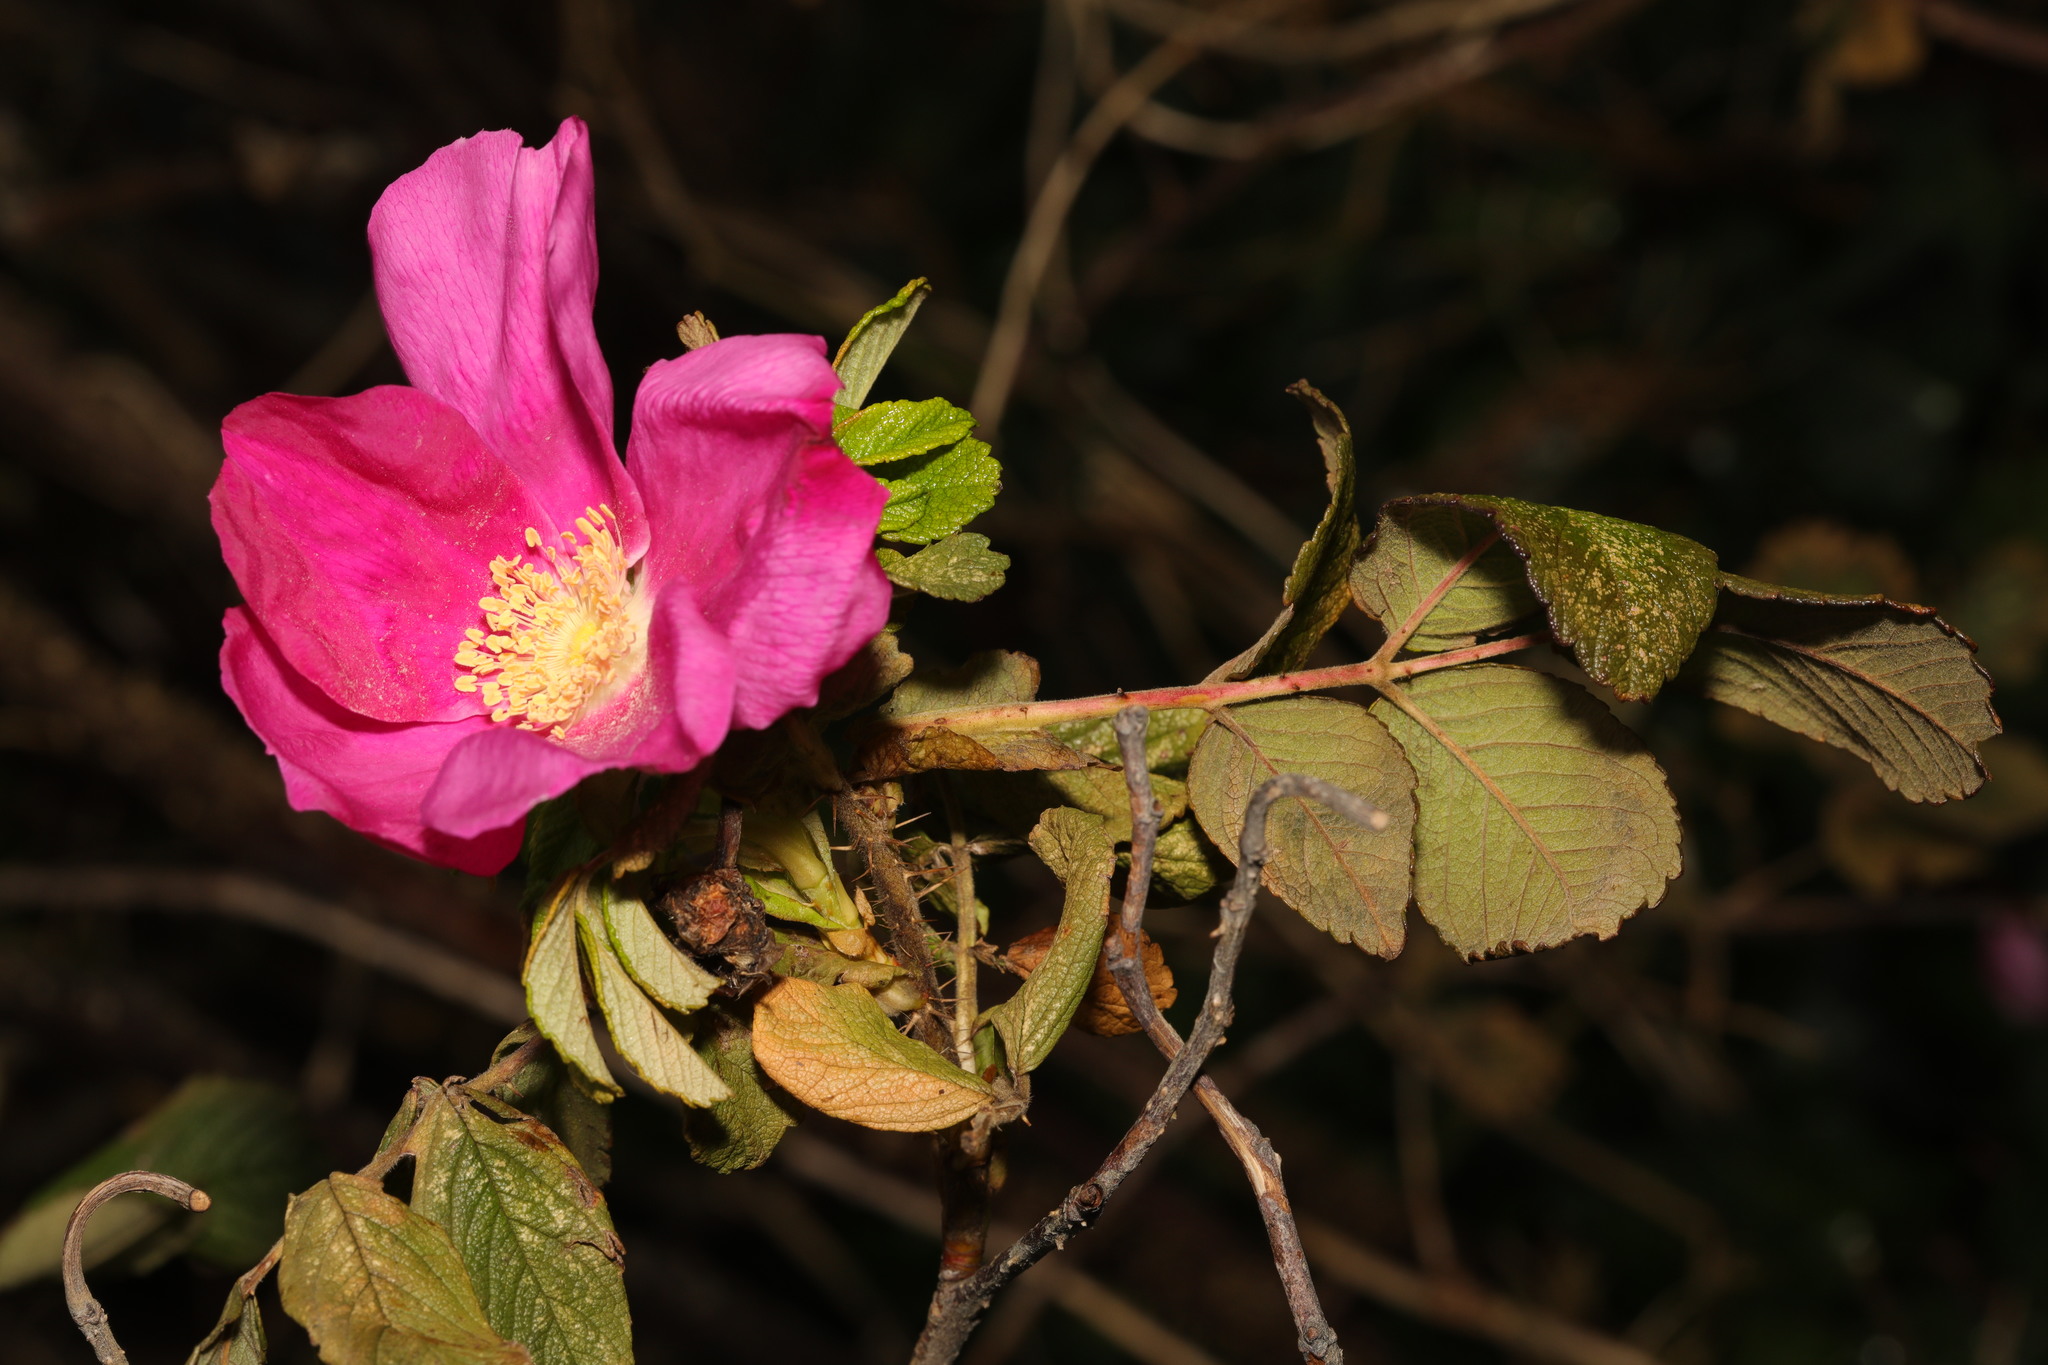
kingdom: Plantae
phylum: Tracheophyta
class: Magnoliopsida
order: Rosales
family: Rosaceae
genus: Rosa
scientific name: Rosa rugosa
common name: Japanese rose
